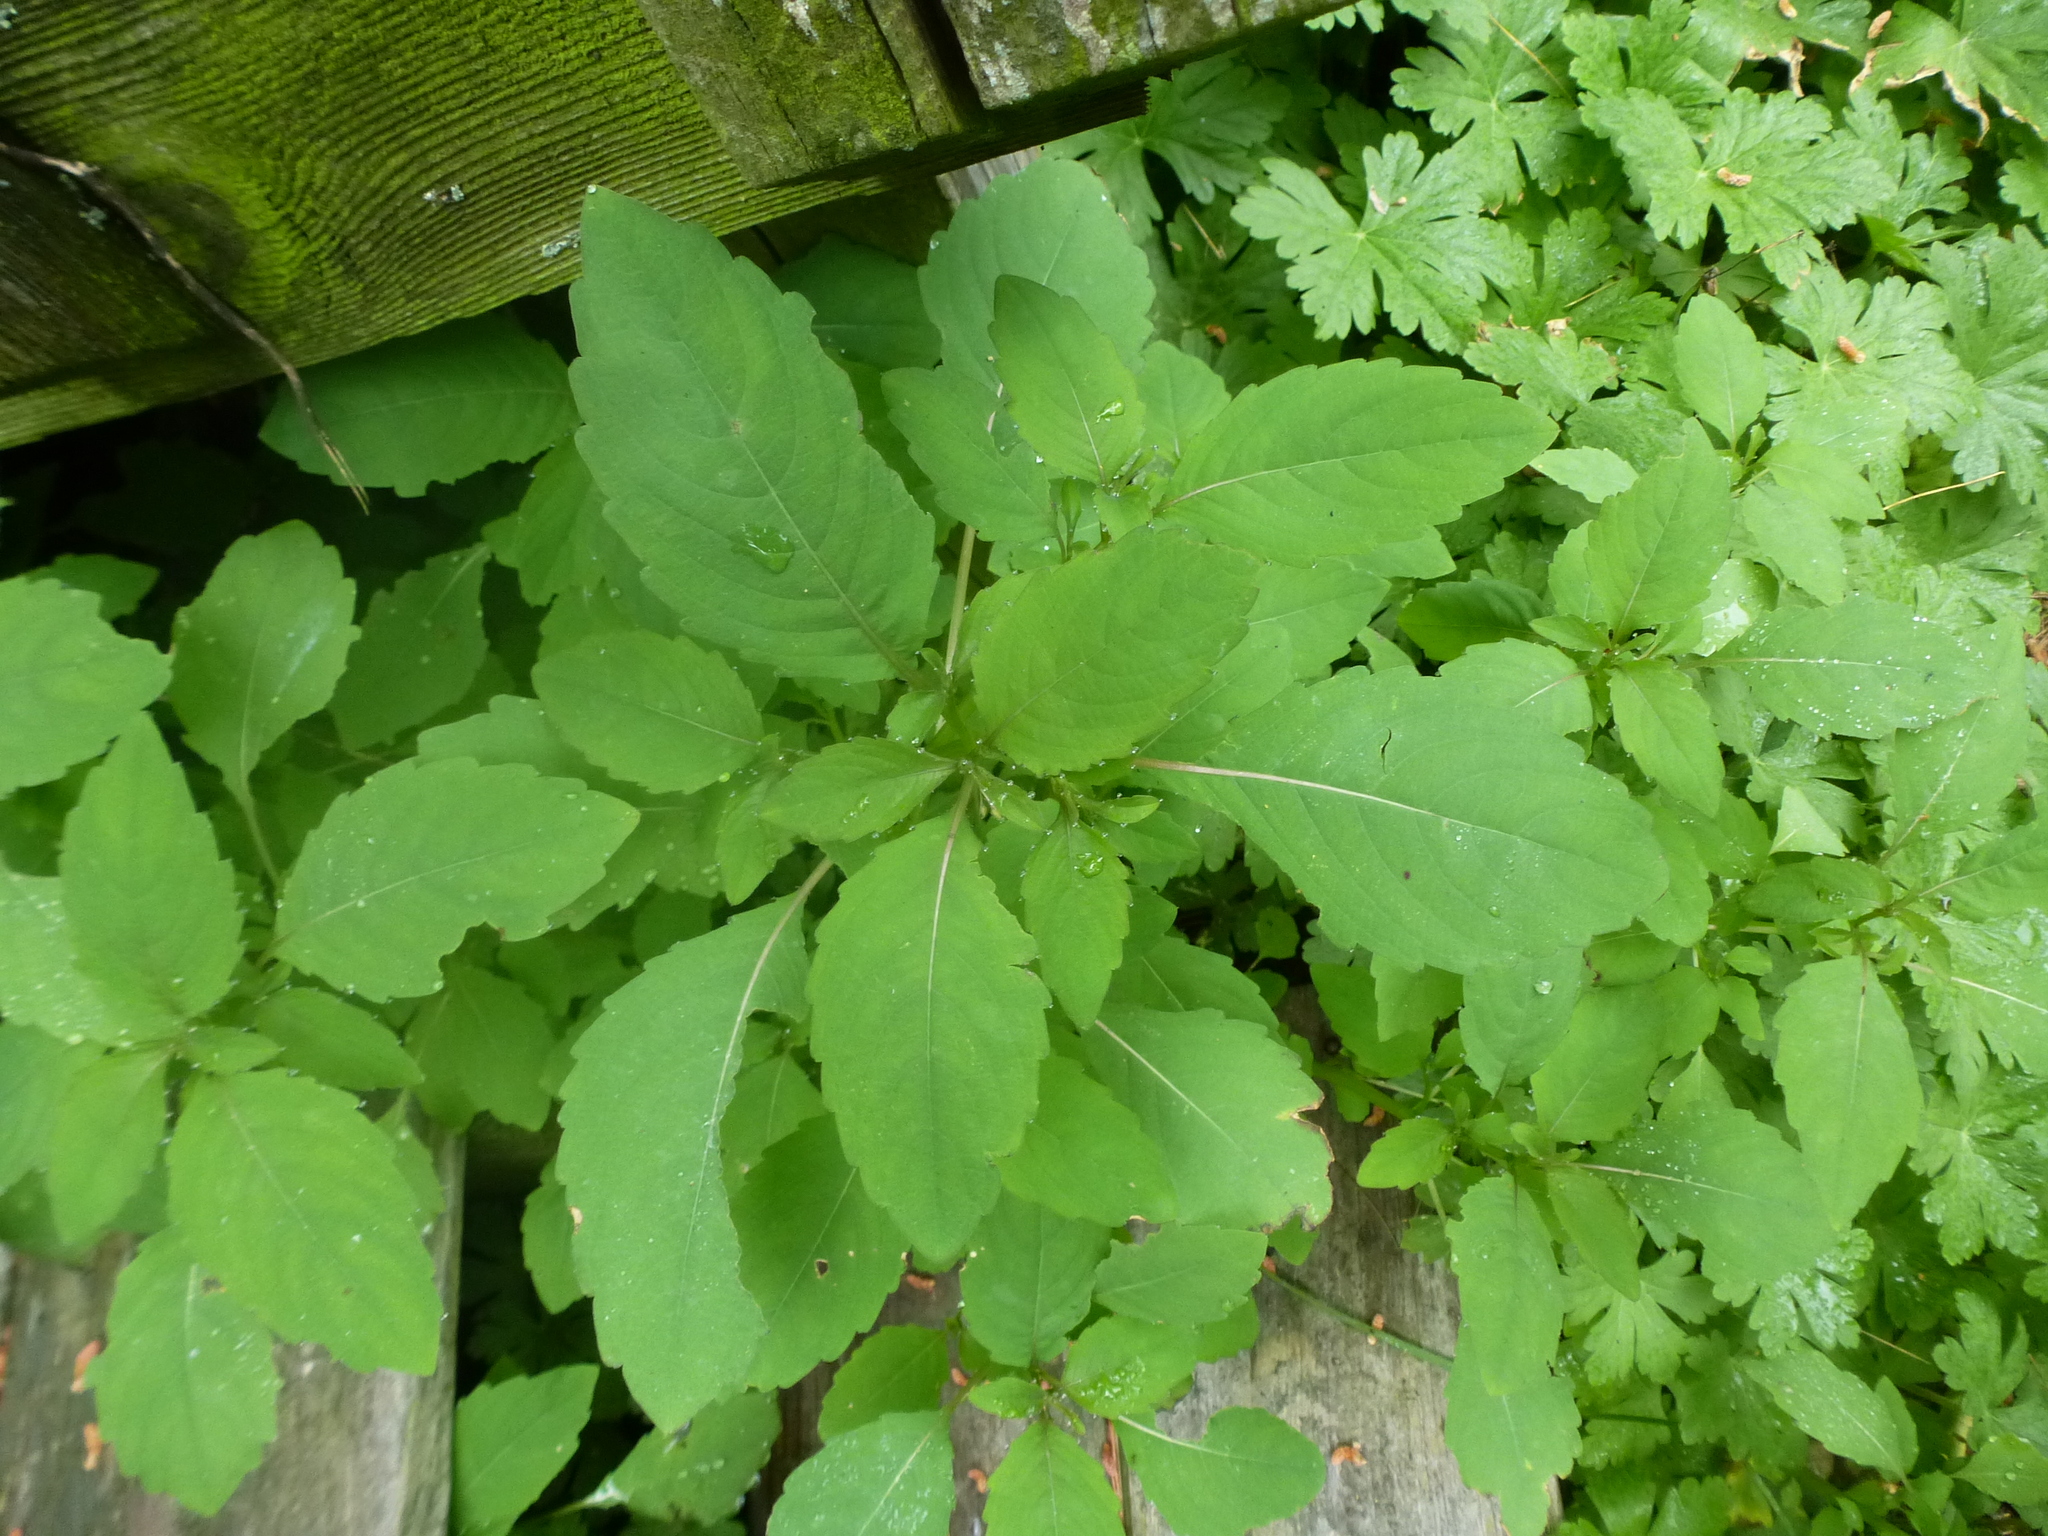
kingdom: Plantae
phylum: Tracheophyta
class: Magnoliopsida
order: Ericales
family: Balsaminaceae
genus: Impatiens
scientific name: Impatiens
